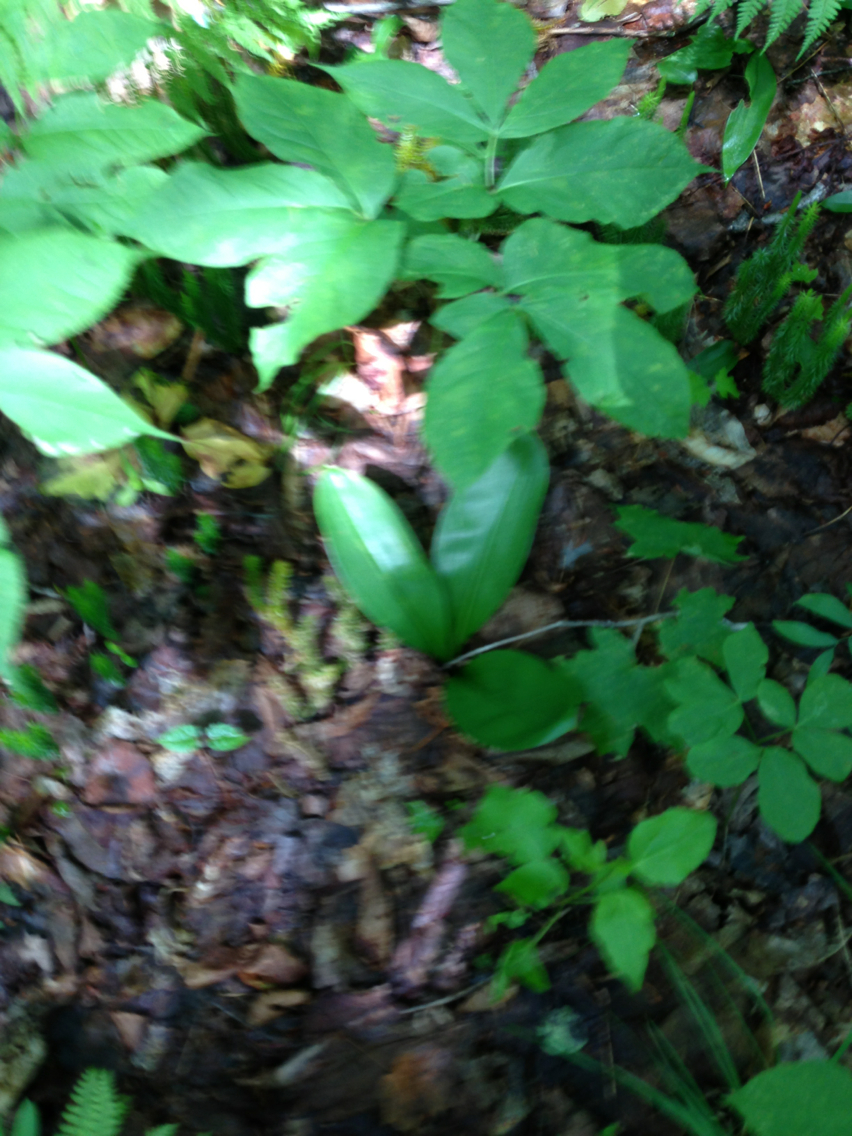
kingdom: Plantae
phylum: Tracheophyta
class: Liliopsida
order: Liliales
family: Liliaceae
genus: Clintonia
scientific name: Clintonia borealis
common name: Yellow clintonia
